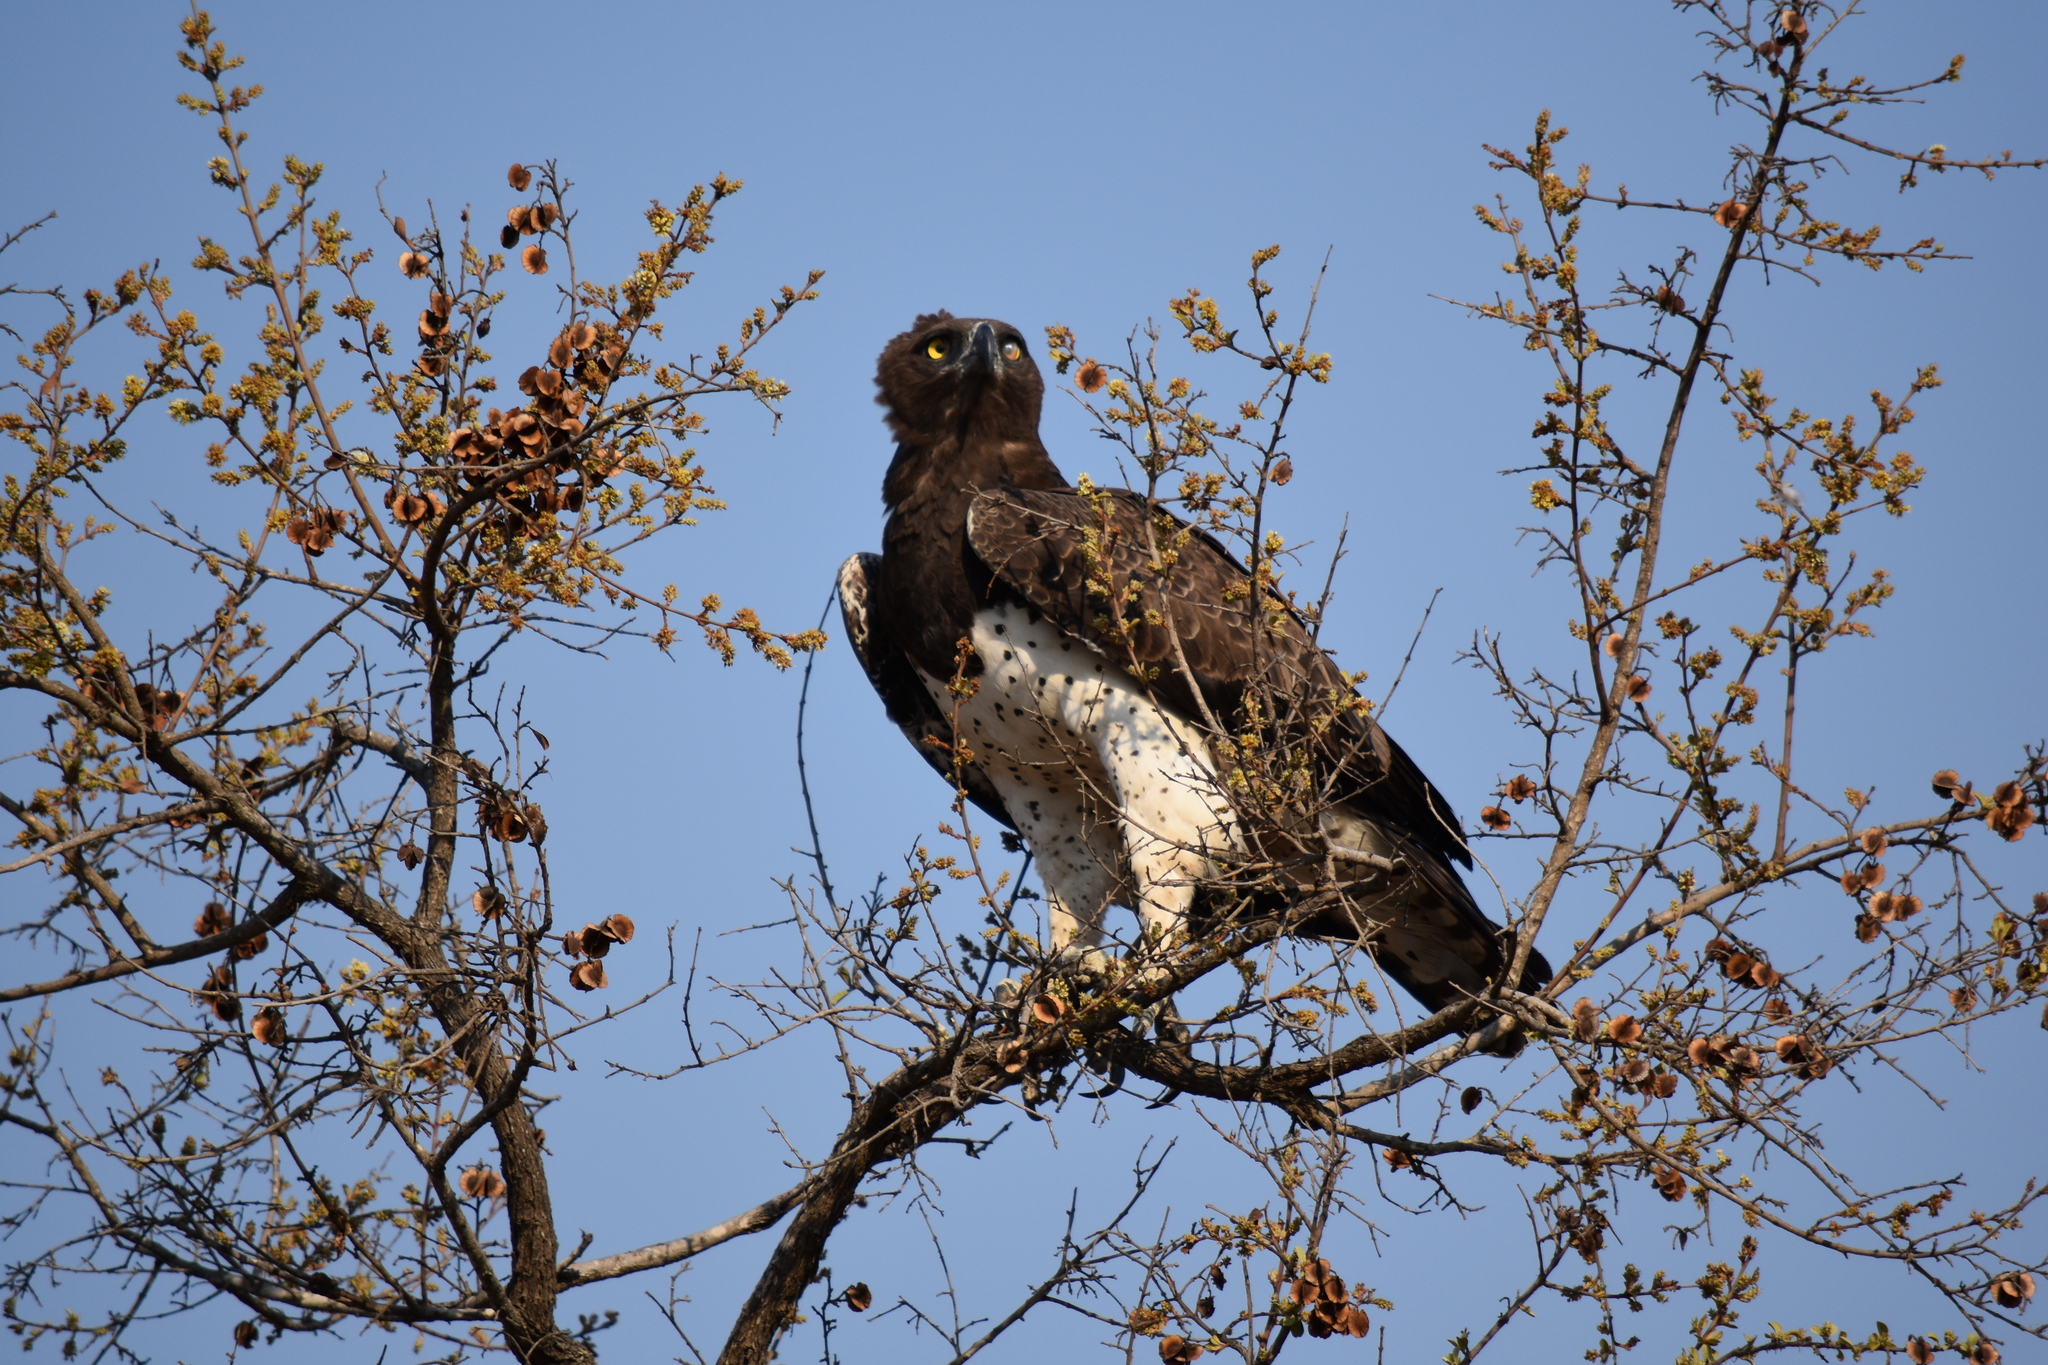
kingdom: Animalia
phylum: Chordata
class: Aves
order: Accipitriformes
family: Accipitridae
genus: Polemaetus
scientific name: Polemaetus bellicosus
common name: Martial eagle
